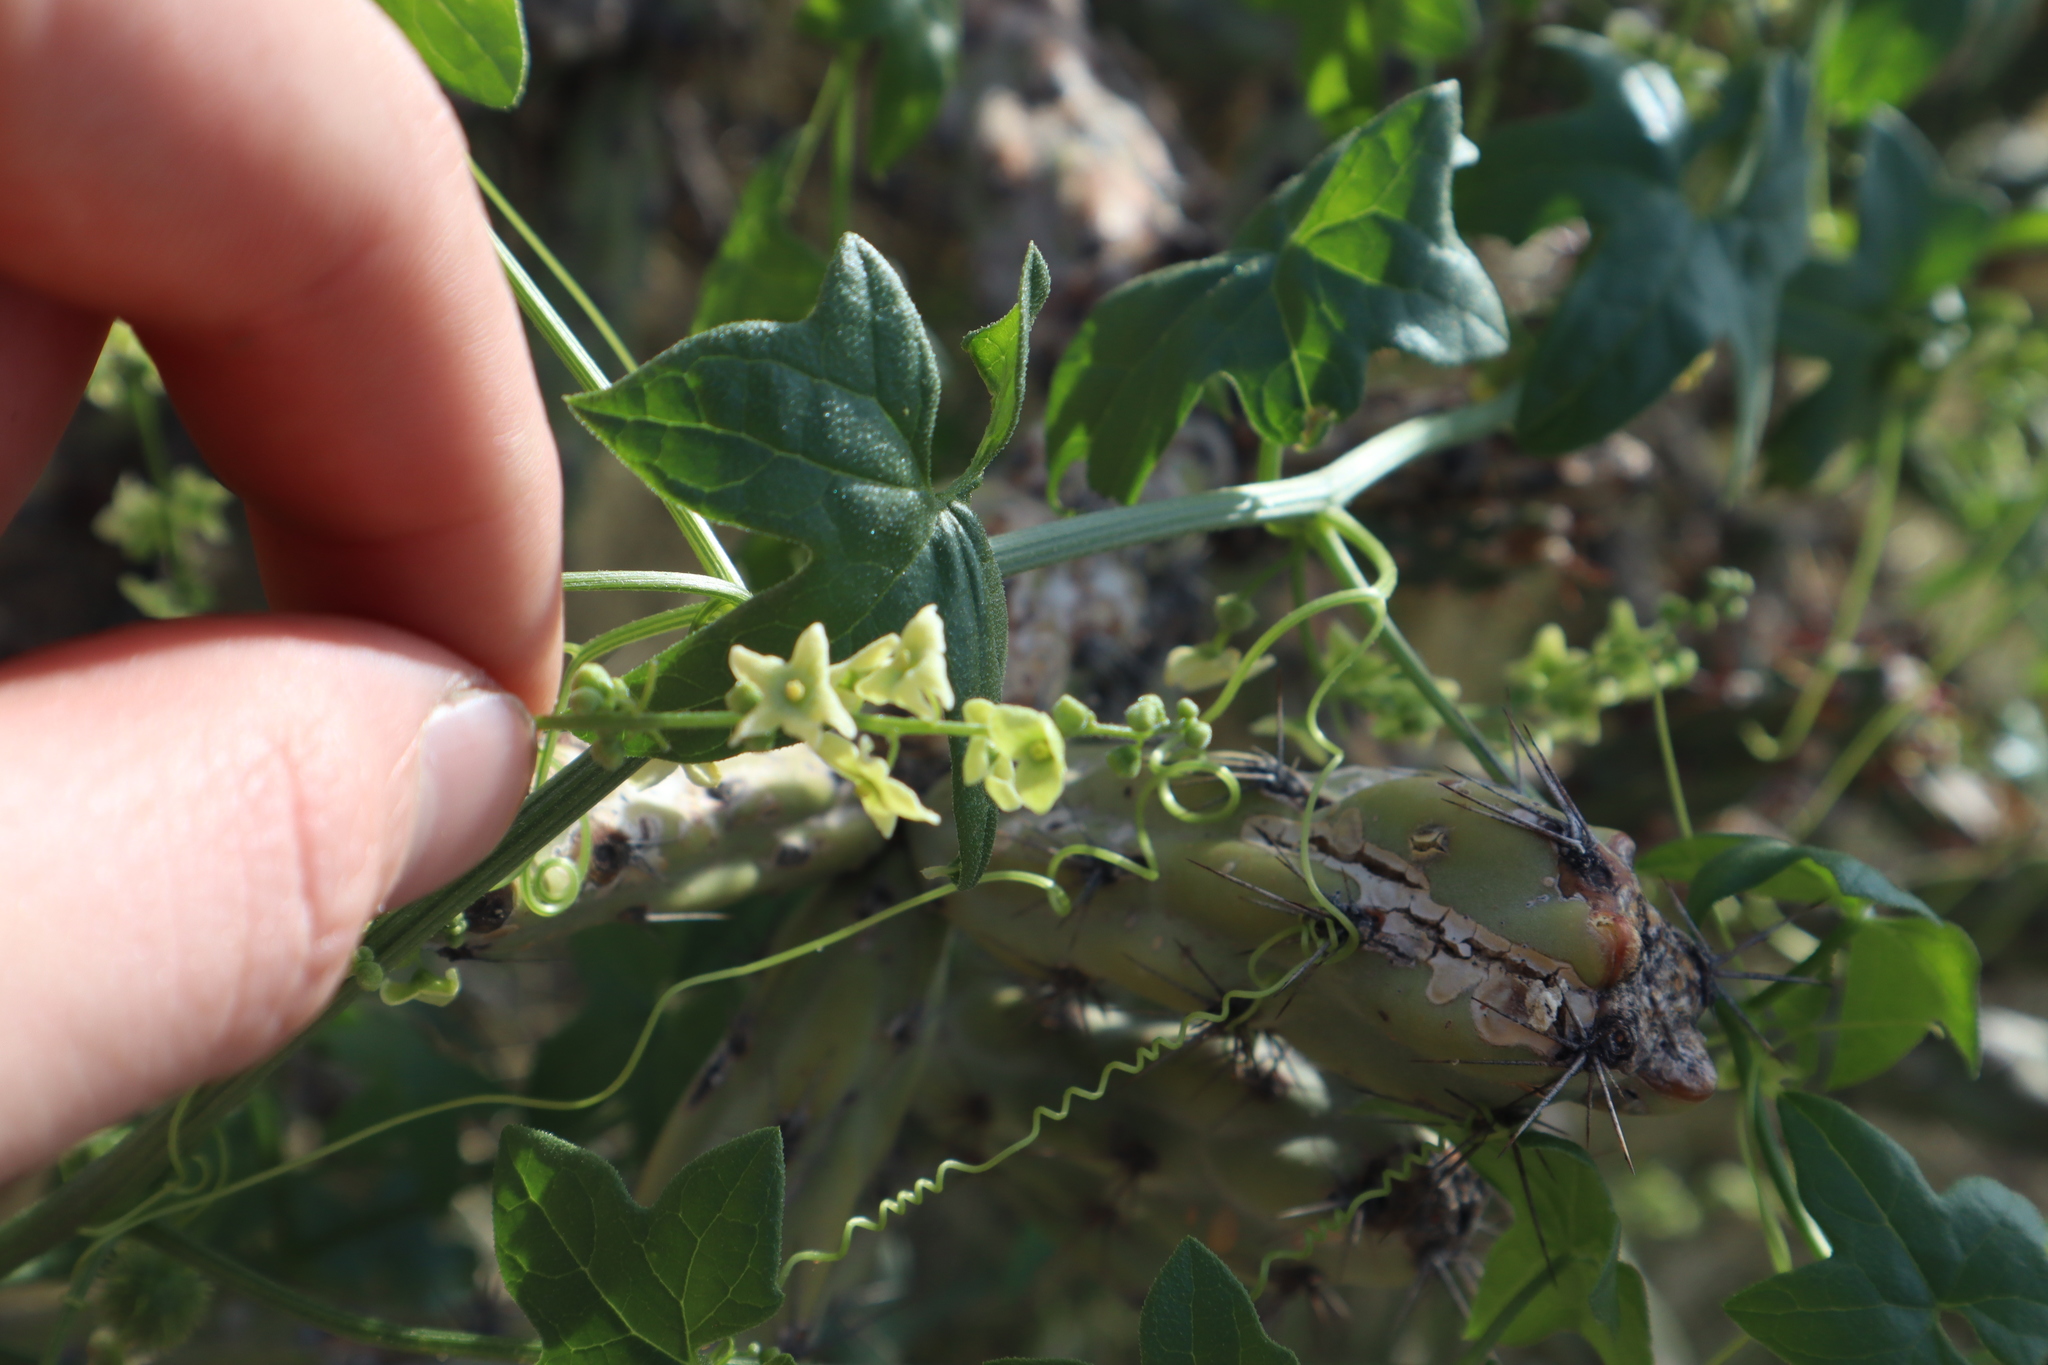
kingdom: Plantae
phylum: Tracheophyta
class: Magnoliopsida
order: Cucurbitales
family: Cucurbitaceae
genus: Marah
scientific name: Marah gilensis
